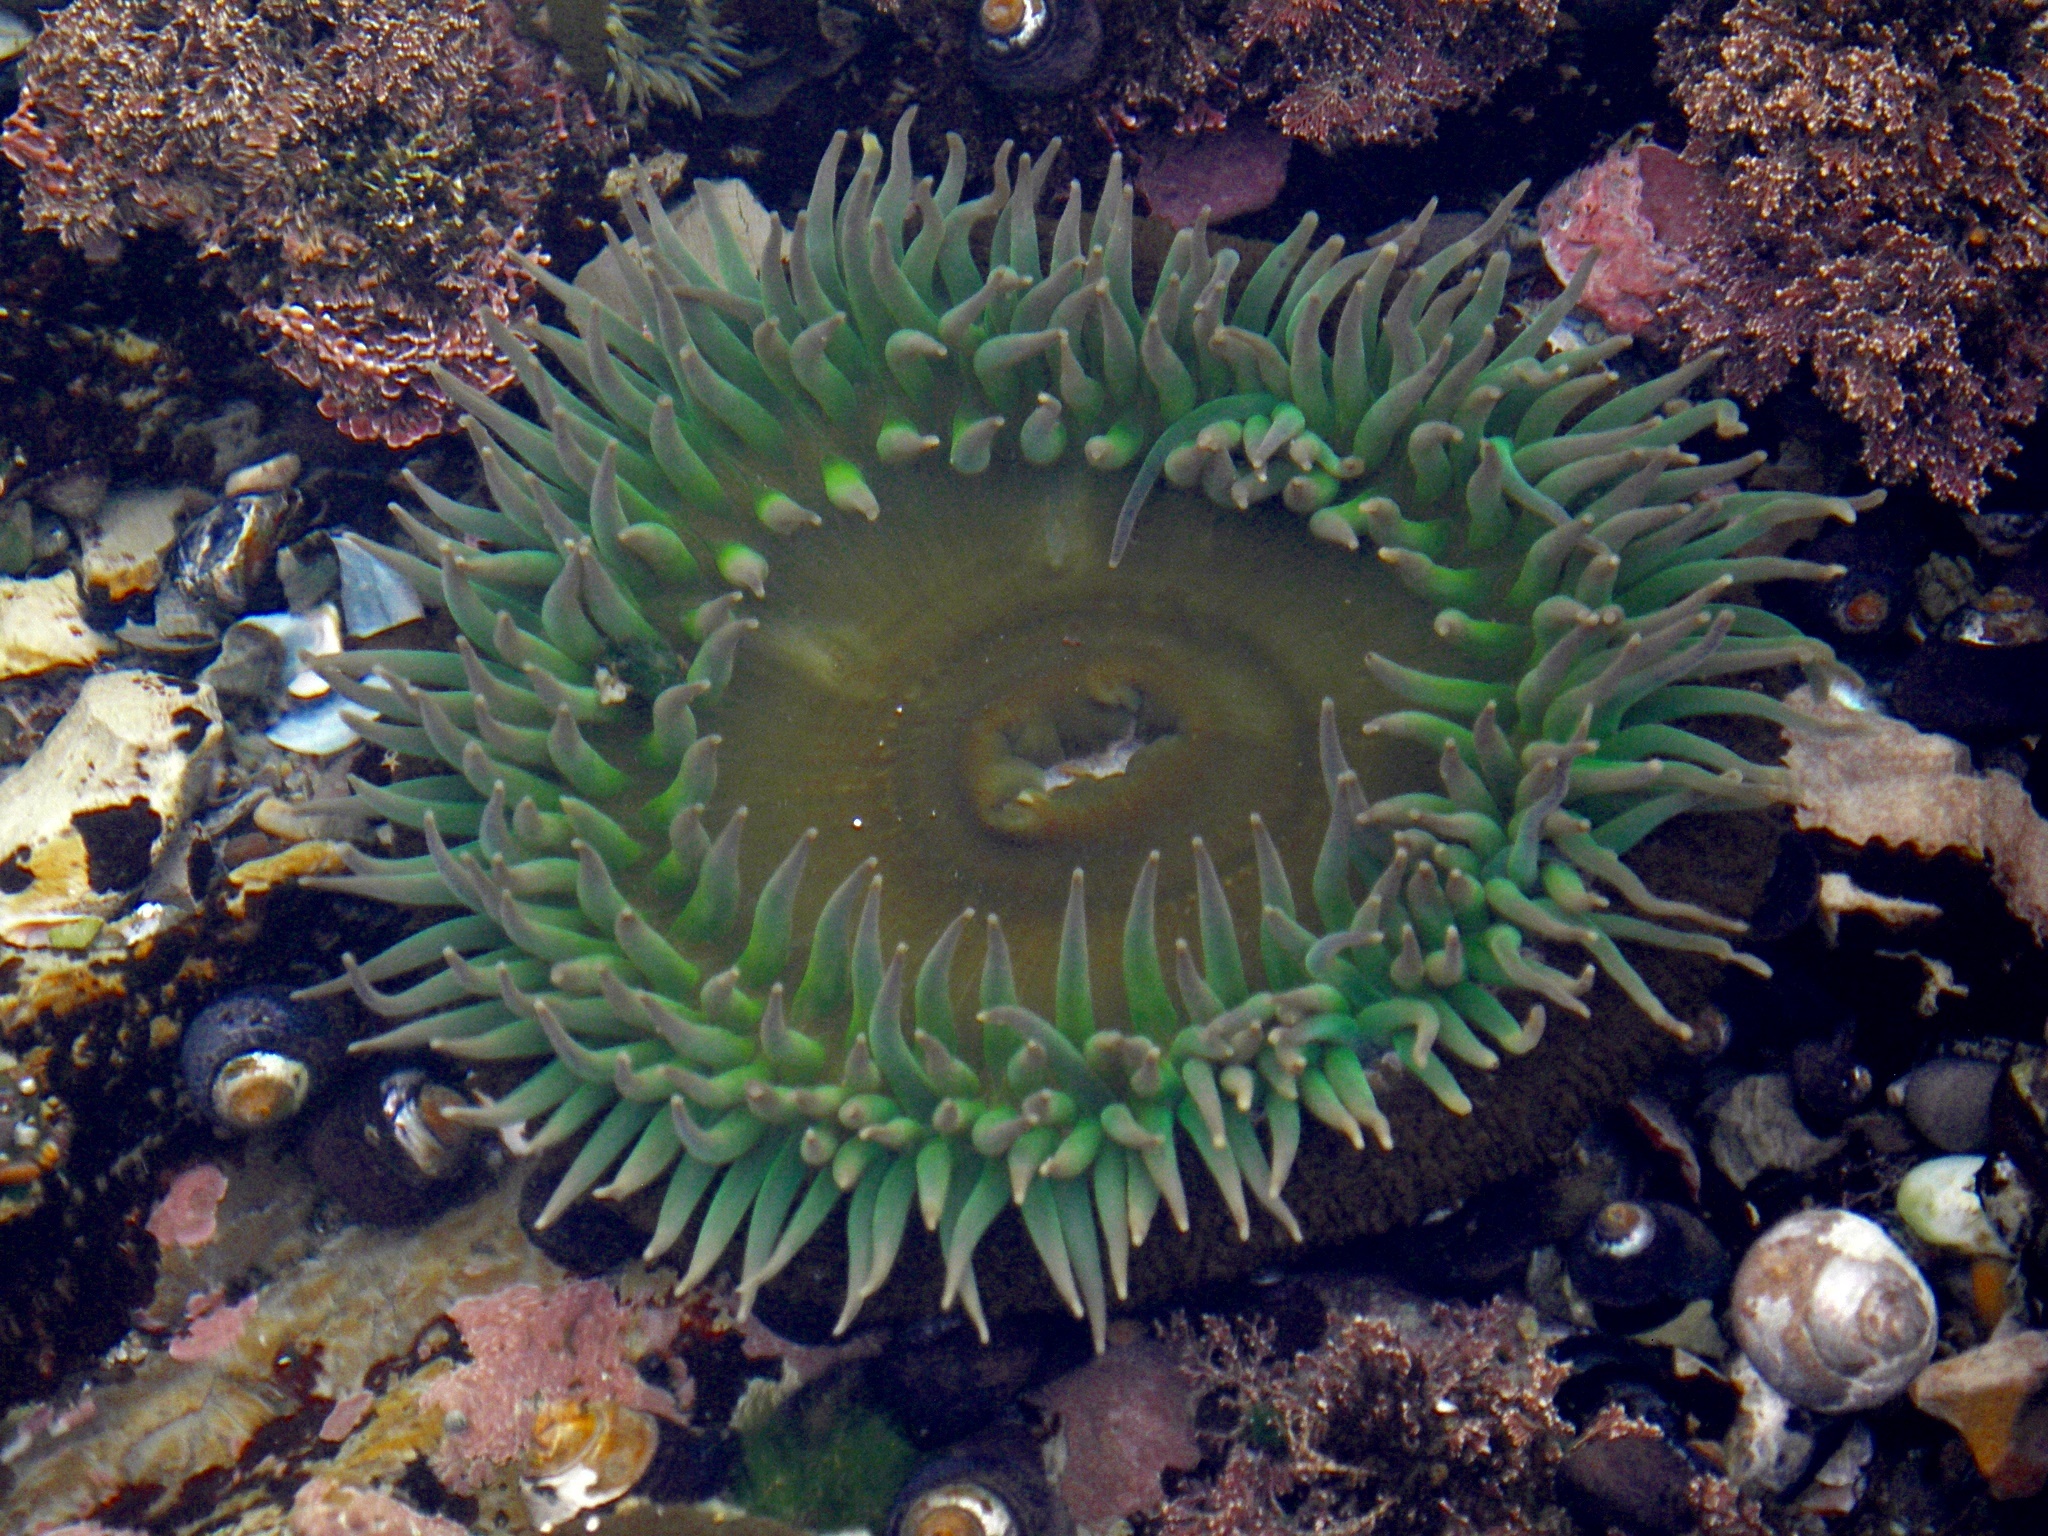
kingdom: Animalia
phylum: Cnidaria
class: Anthozoa
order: Actiniaria
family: Actiniidae
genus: Anthopleura
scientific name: Anthopleura xanthogrammica
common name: Giant green anemone
